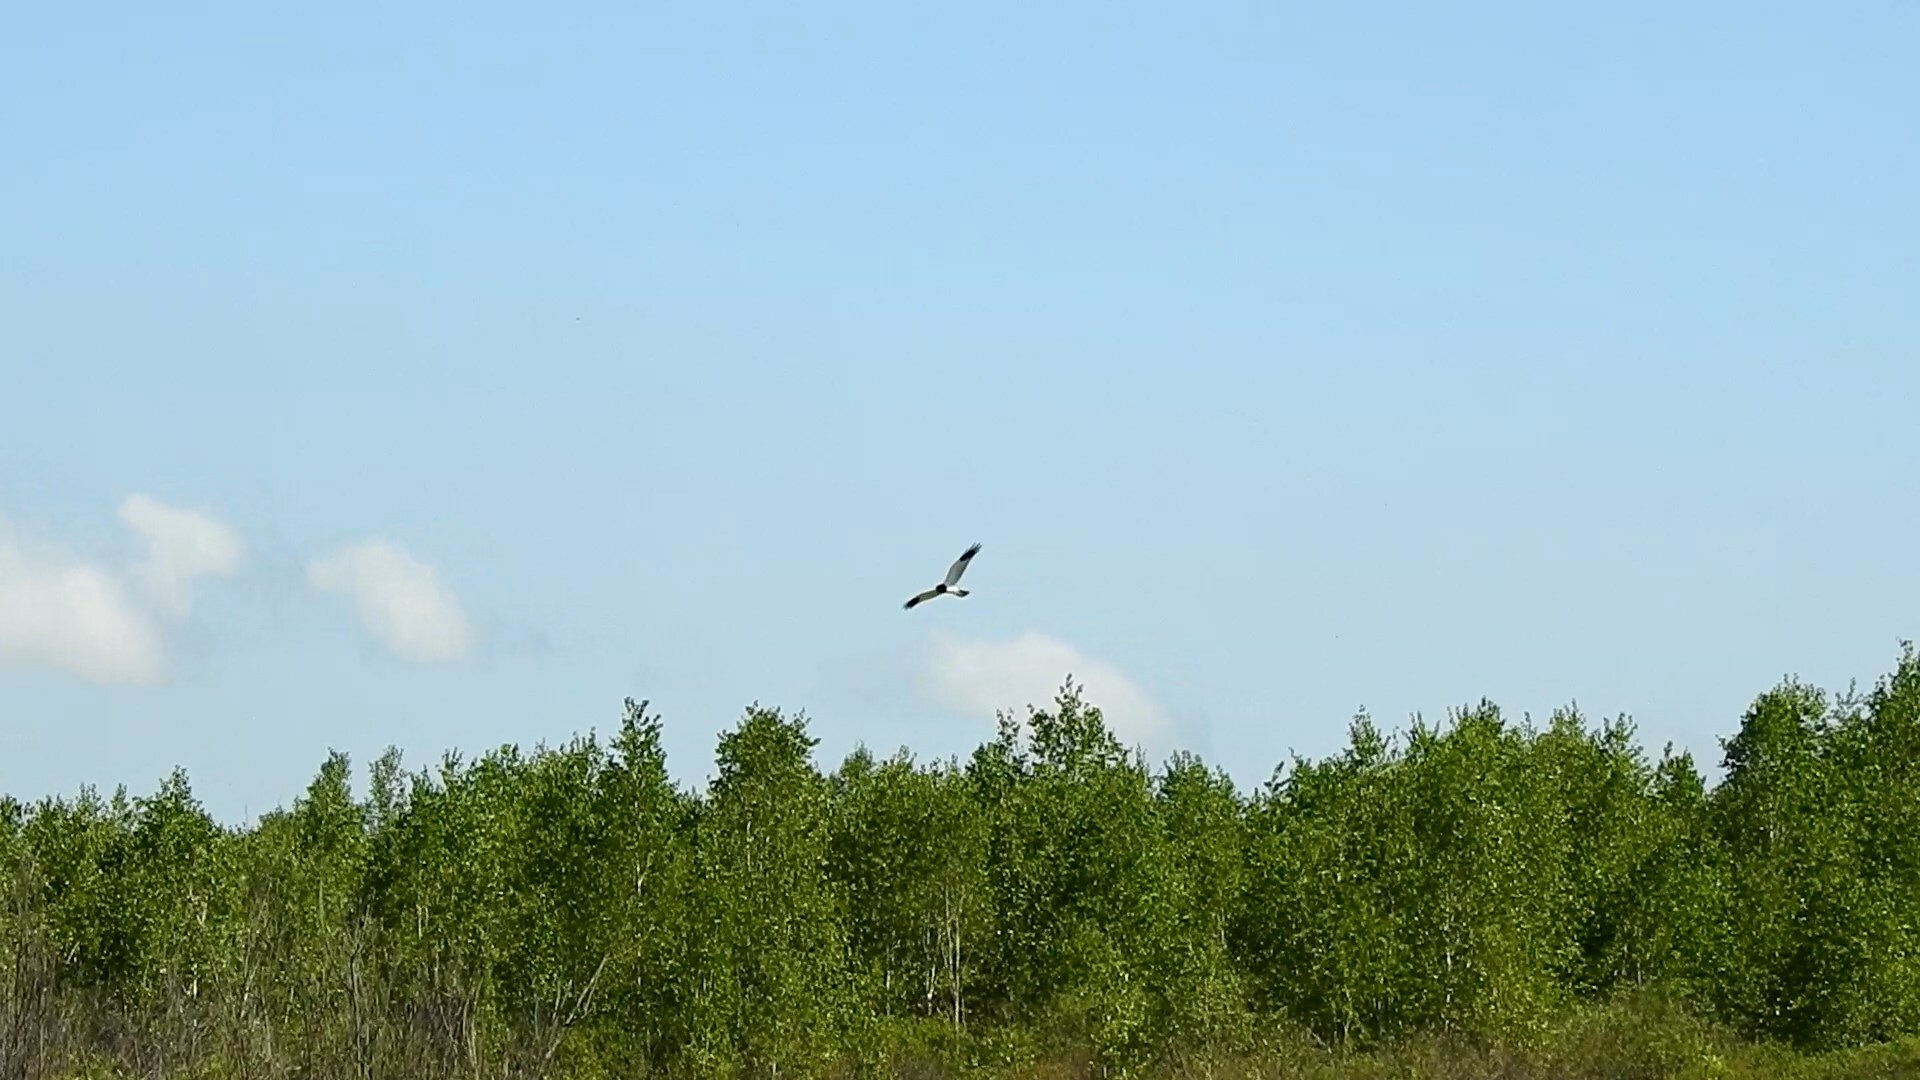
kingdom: Animalia
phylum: Chordata
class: Aves
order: Accipitriformes
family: Accipitridae
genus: Circus
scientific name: Circus melanoleucos
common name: Pied harrier
